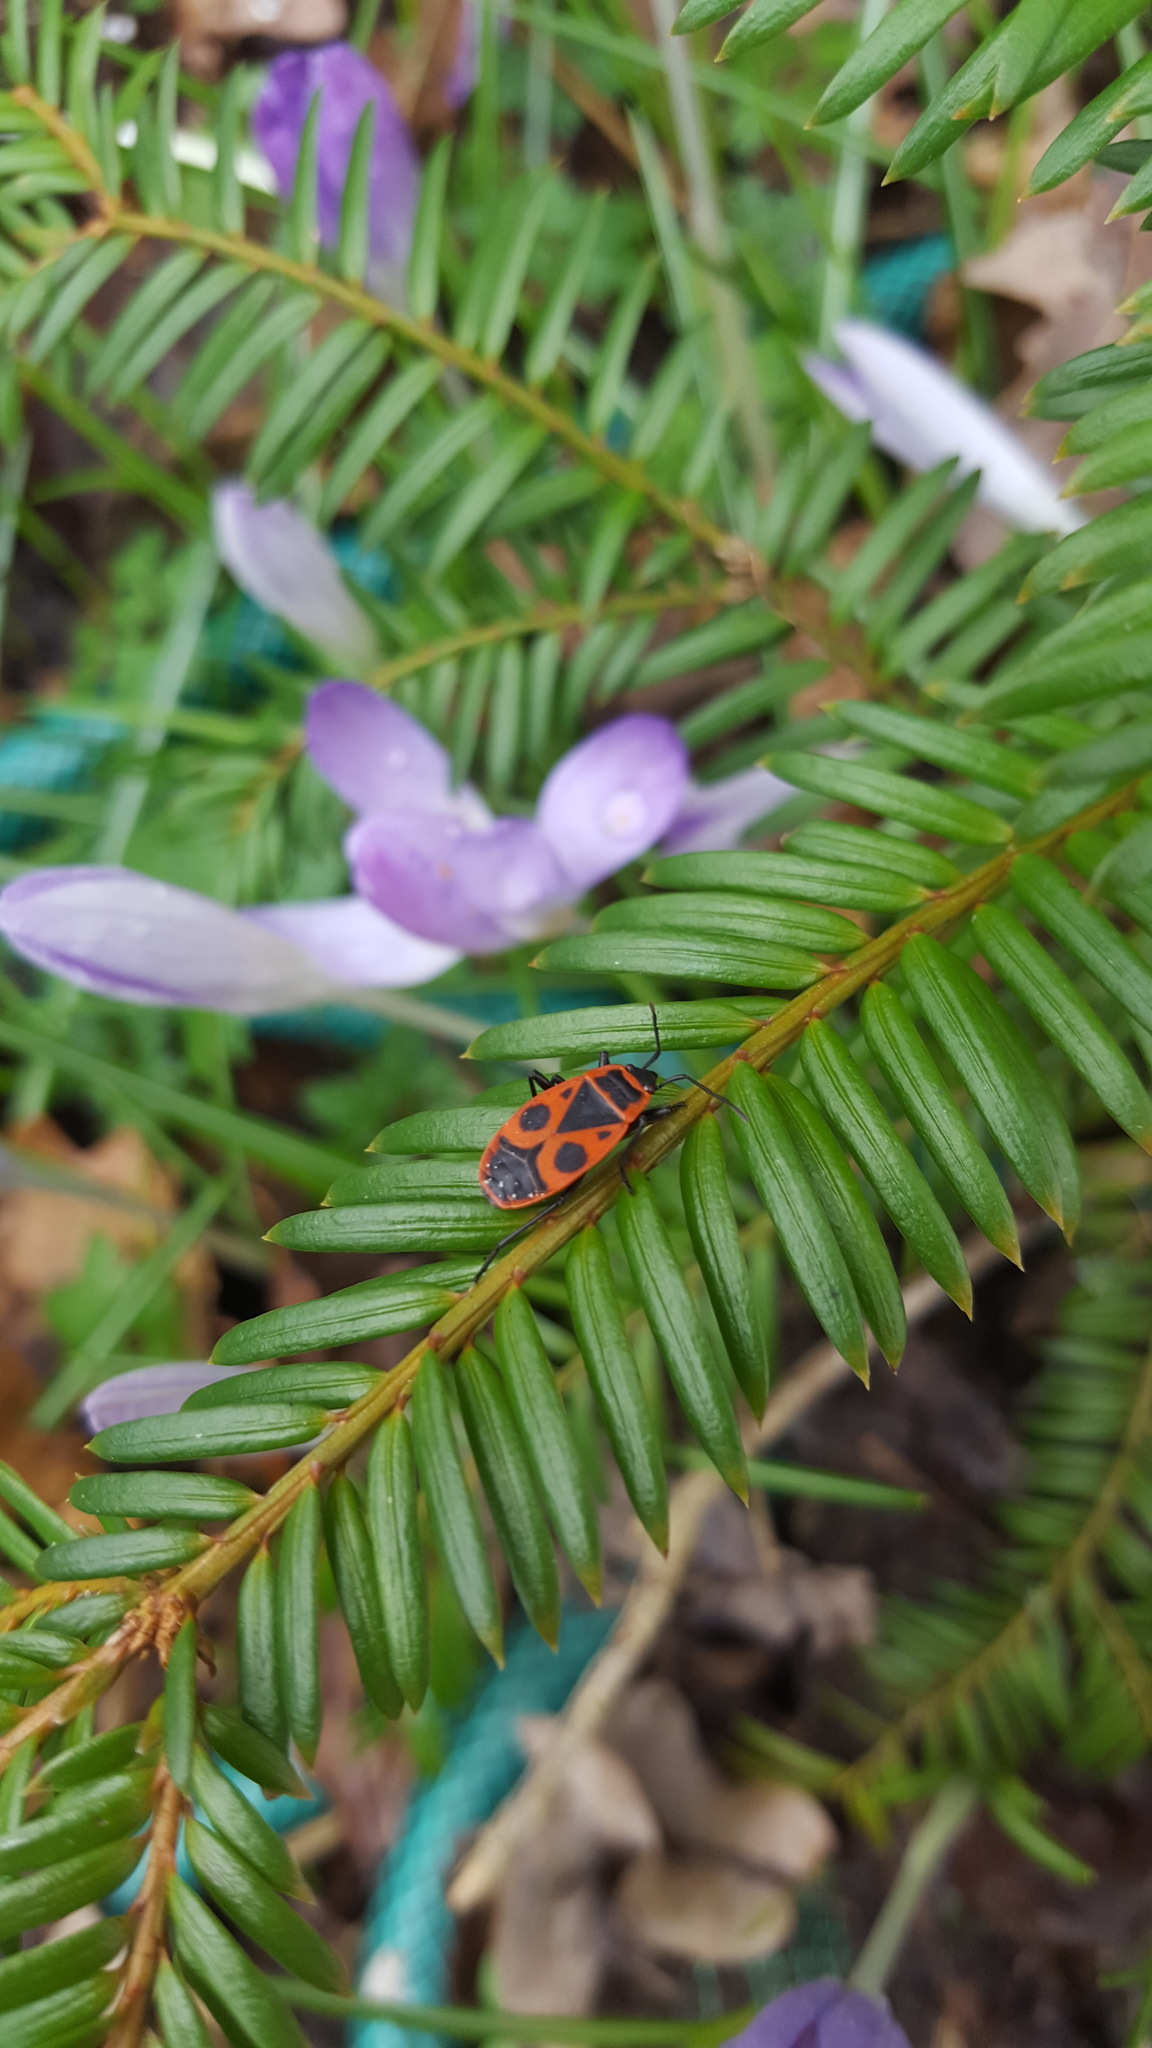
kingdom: Animalia
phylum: Arthropoda
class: Insecta
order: Hemiptera
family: Pyrrhocoridae
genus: Pyrrhocoris
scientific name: Pyrrhocoris apterus
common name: Firebug
